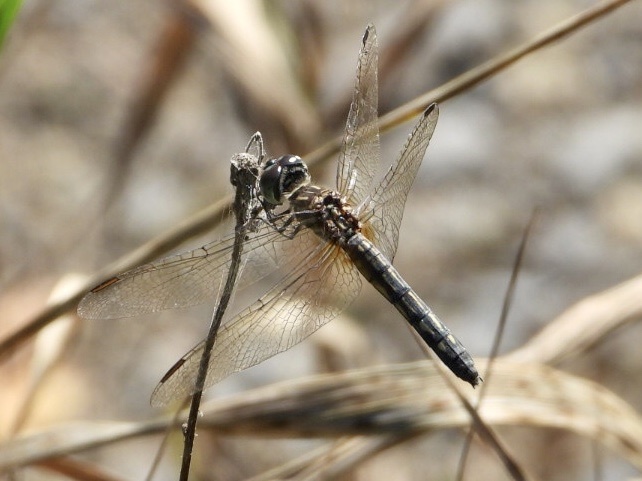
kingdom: Animalia
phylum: Arthropoda
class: Insecta
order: Odonata
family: Libellulidae
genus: Pachydiplax
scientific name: Pachydiplax longipennis
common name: Blue dasher
